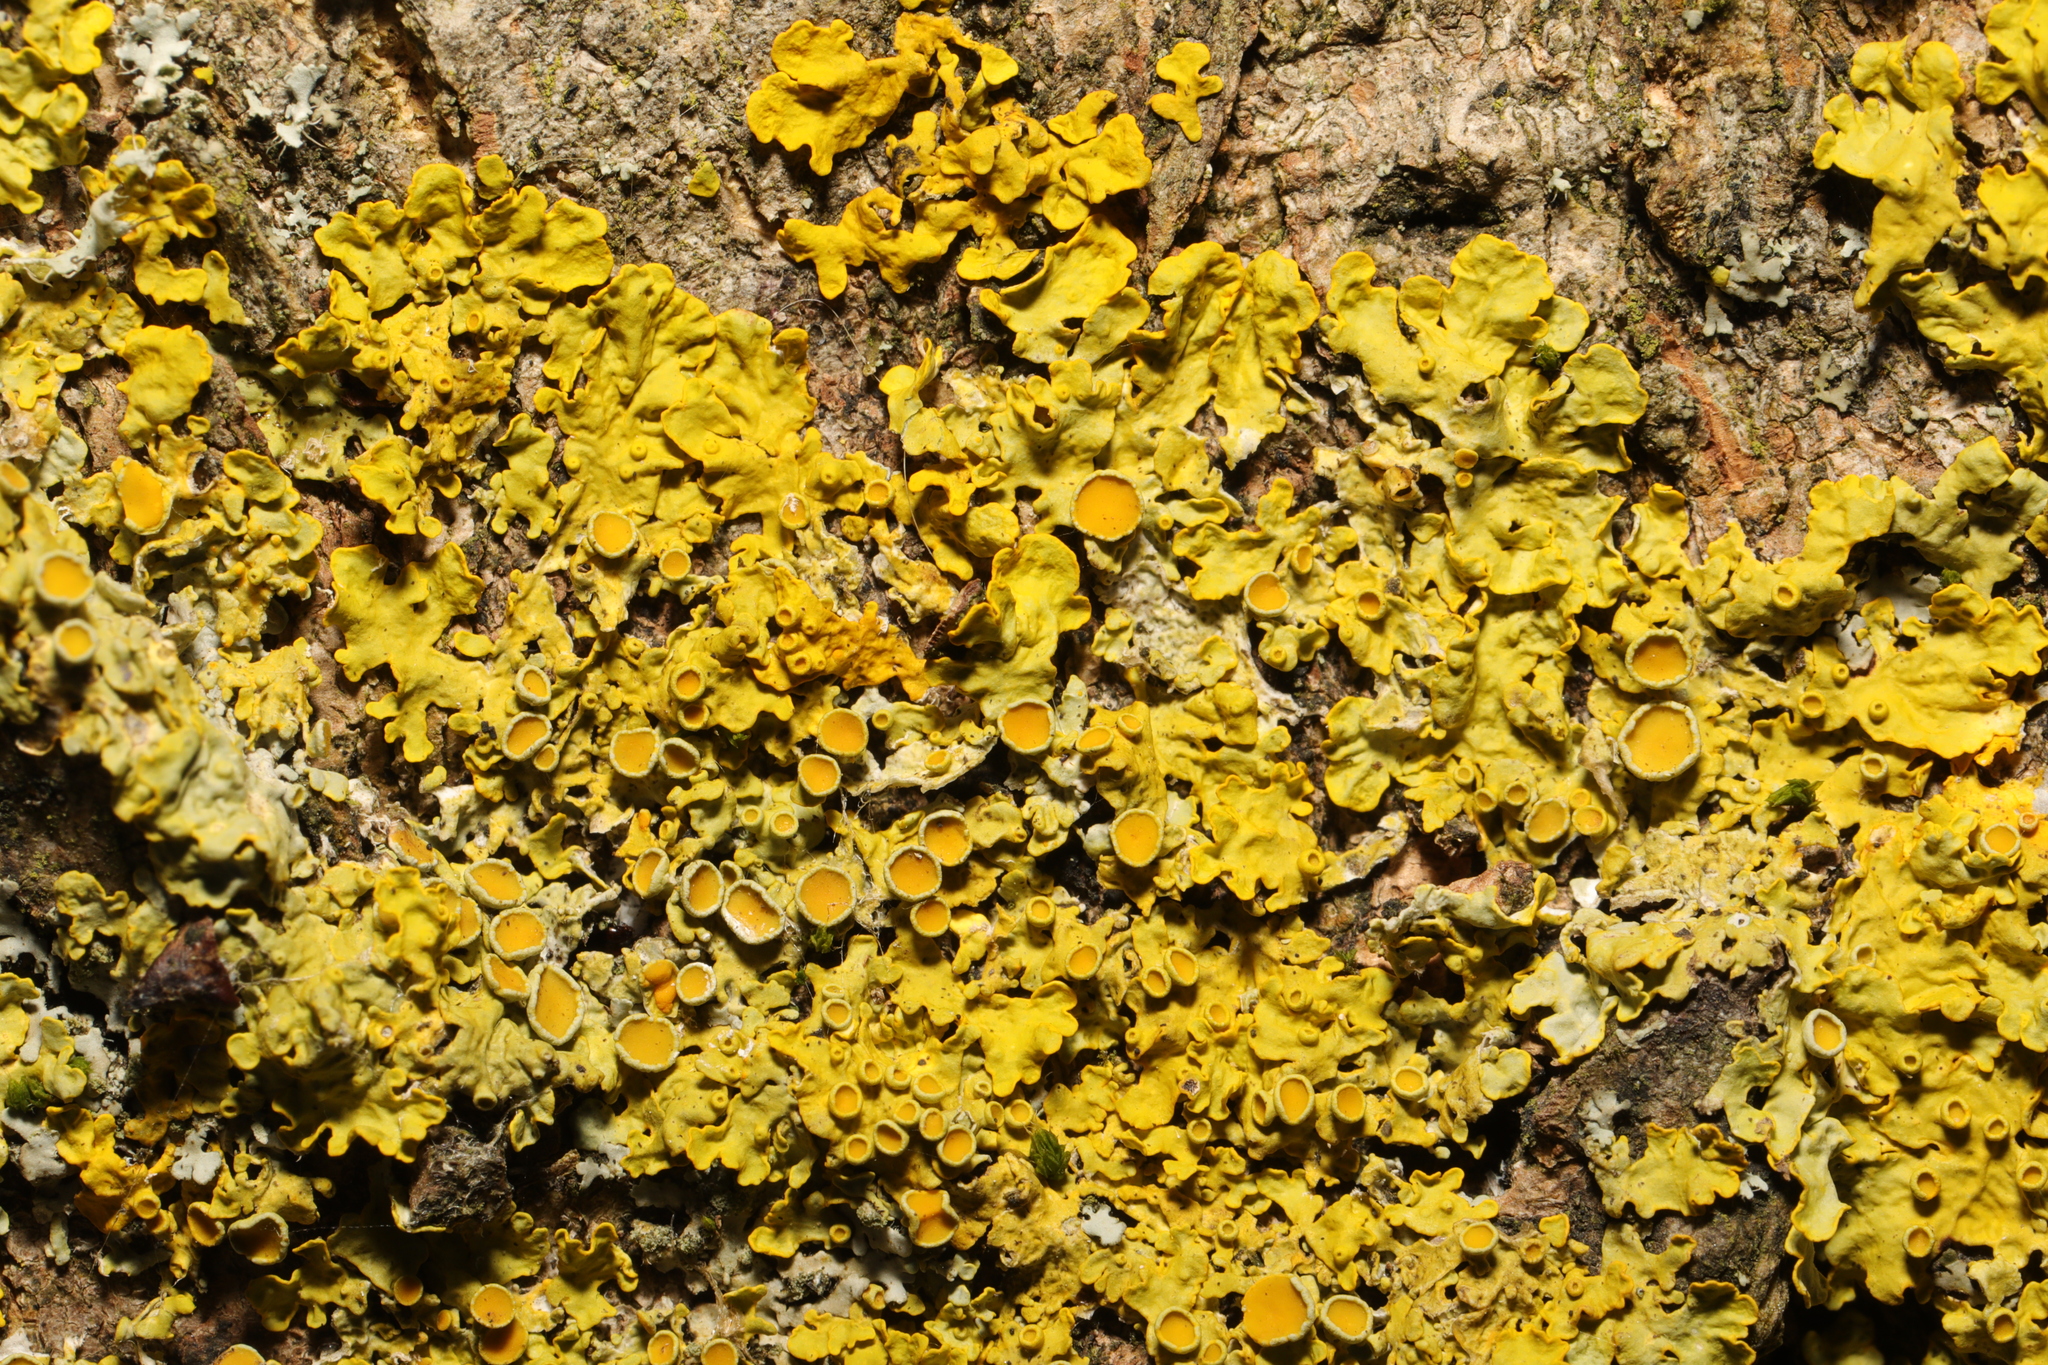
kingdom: Fungi
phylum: Ascomycota
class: Lecanoromycetes
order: Teloschistales
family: Teloschistaceae
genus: Xanthoria
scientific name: Xanthoria parietina
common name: Common orange lichen
